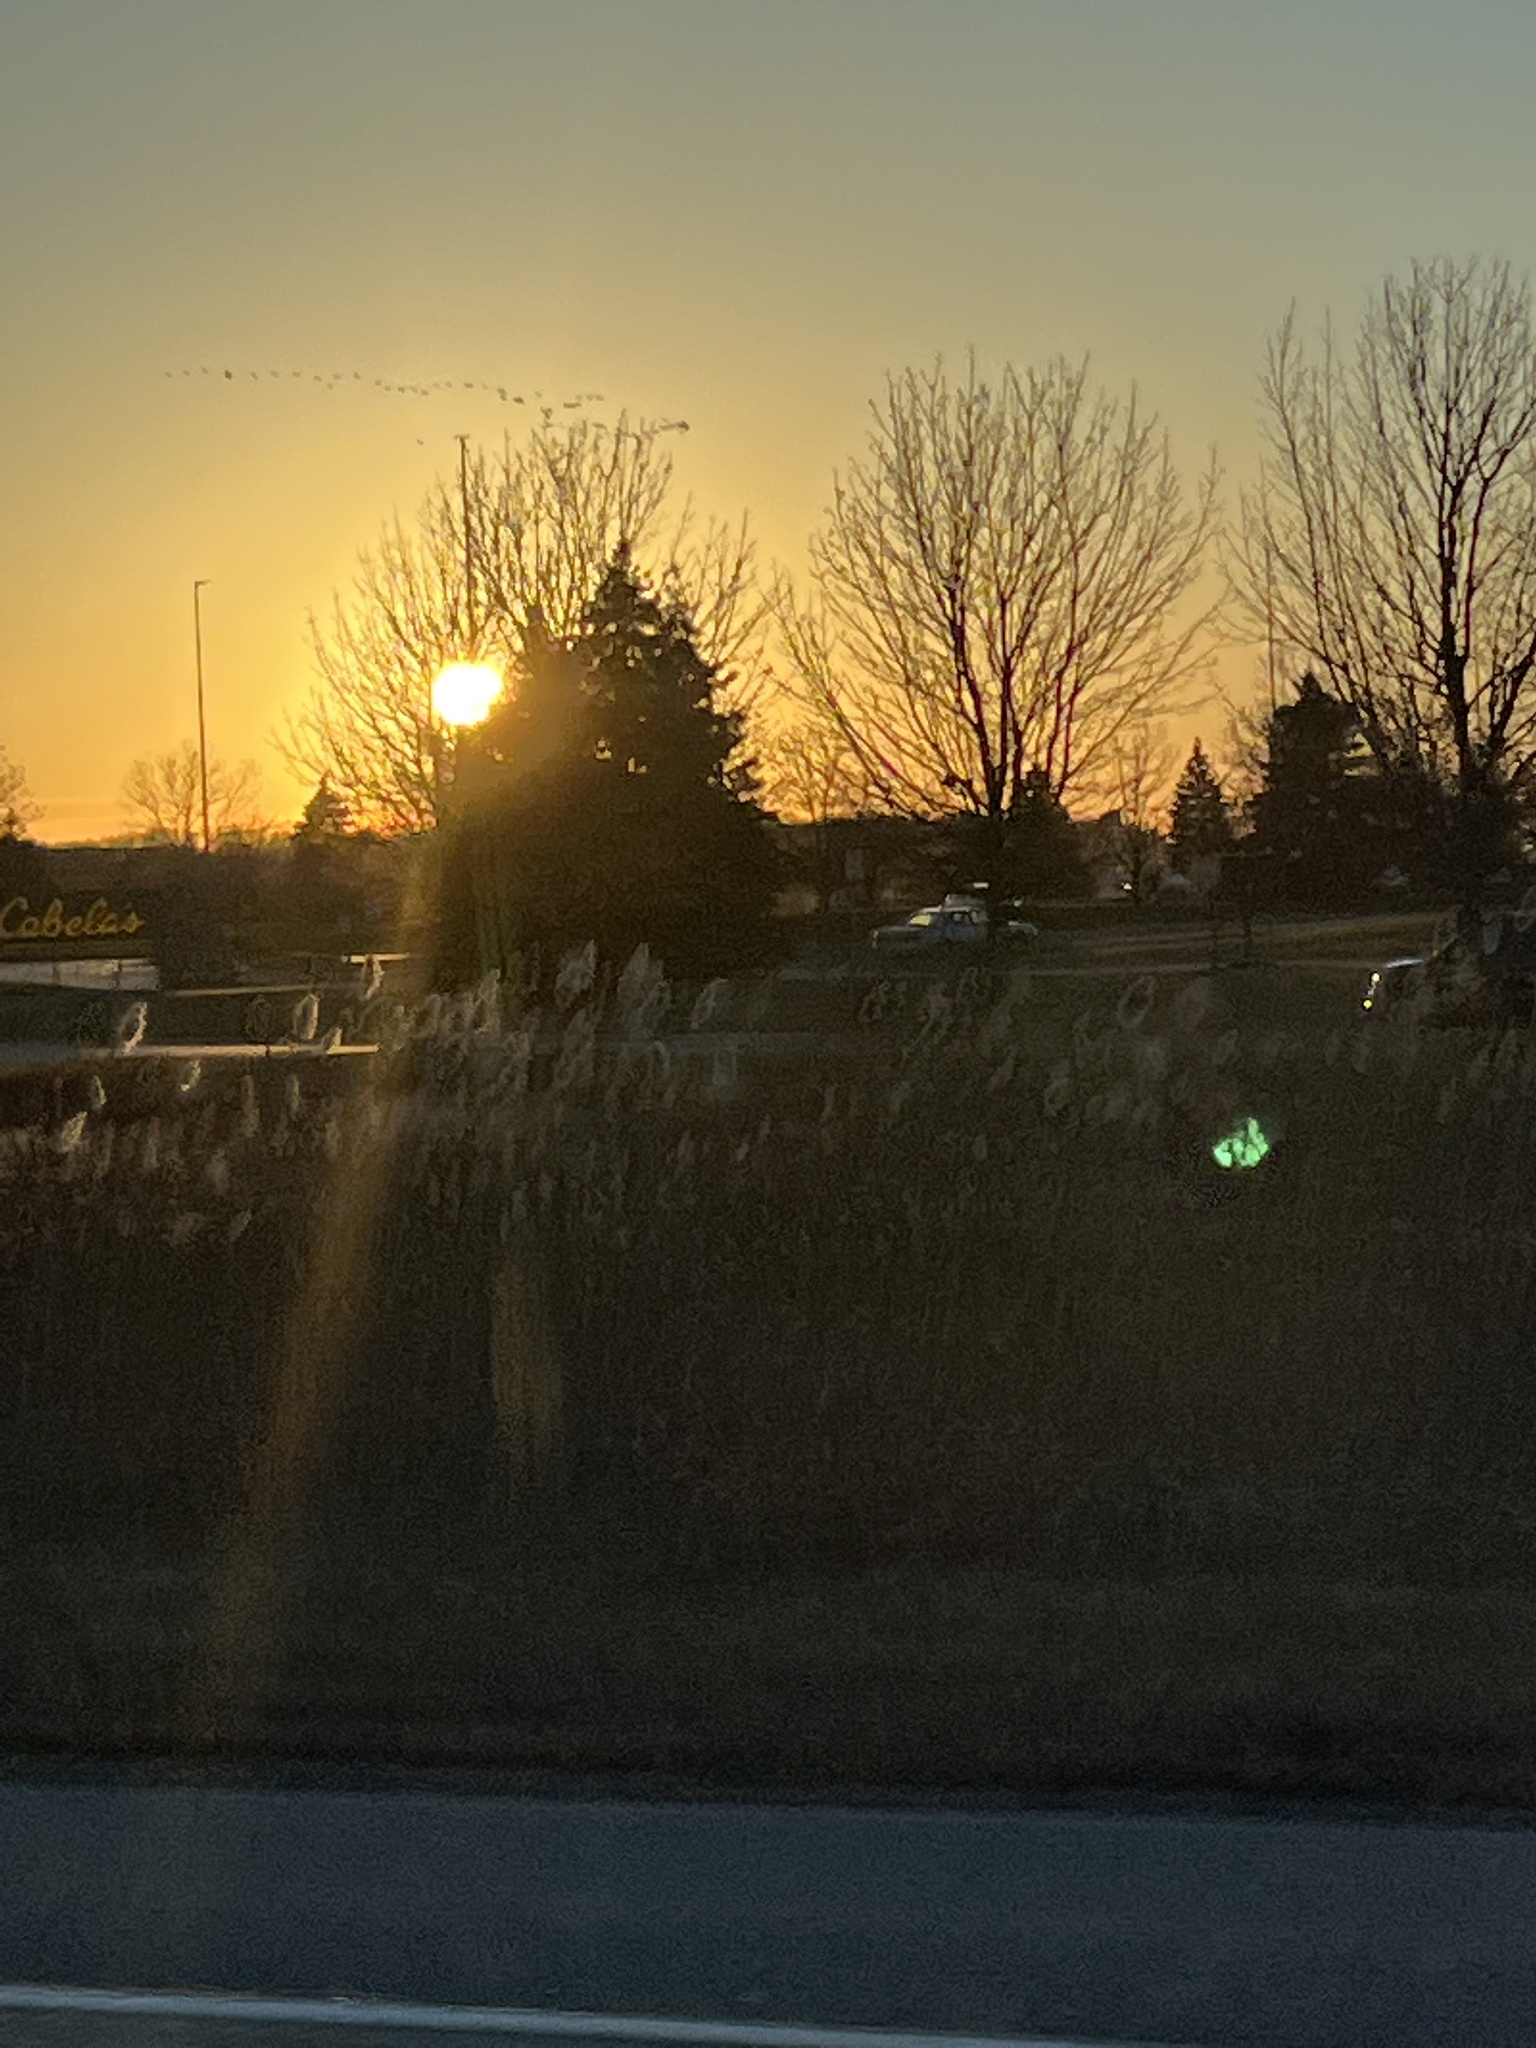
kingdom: Plantae
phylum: Tracheophyta
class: Liliopsida
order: Poales
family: Poaceae
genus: Phragmites
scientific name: Phragmites australis
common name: Common reed
